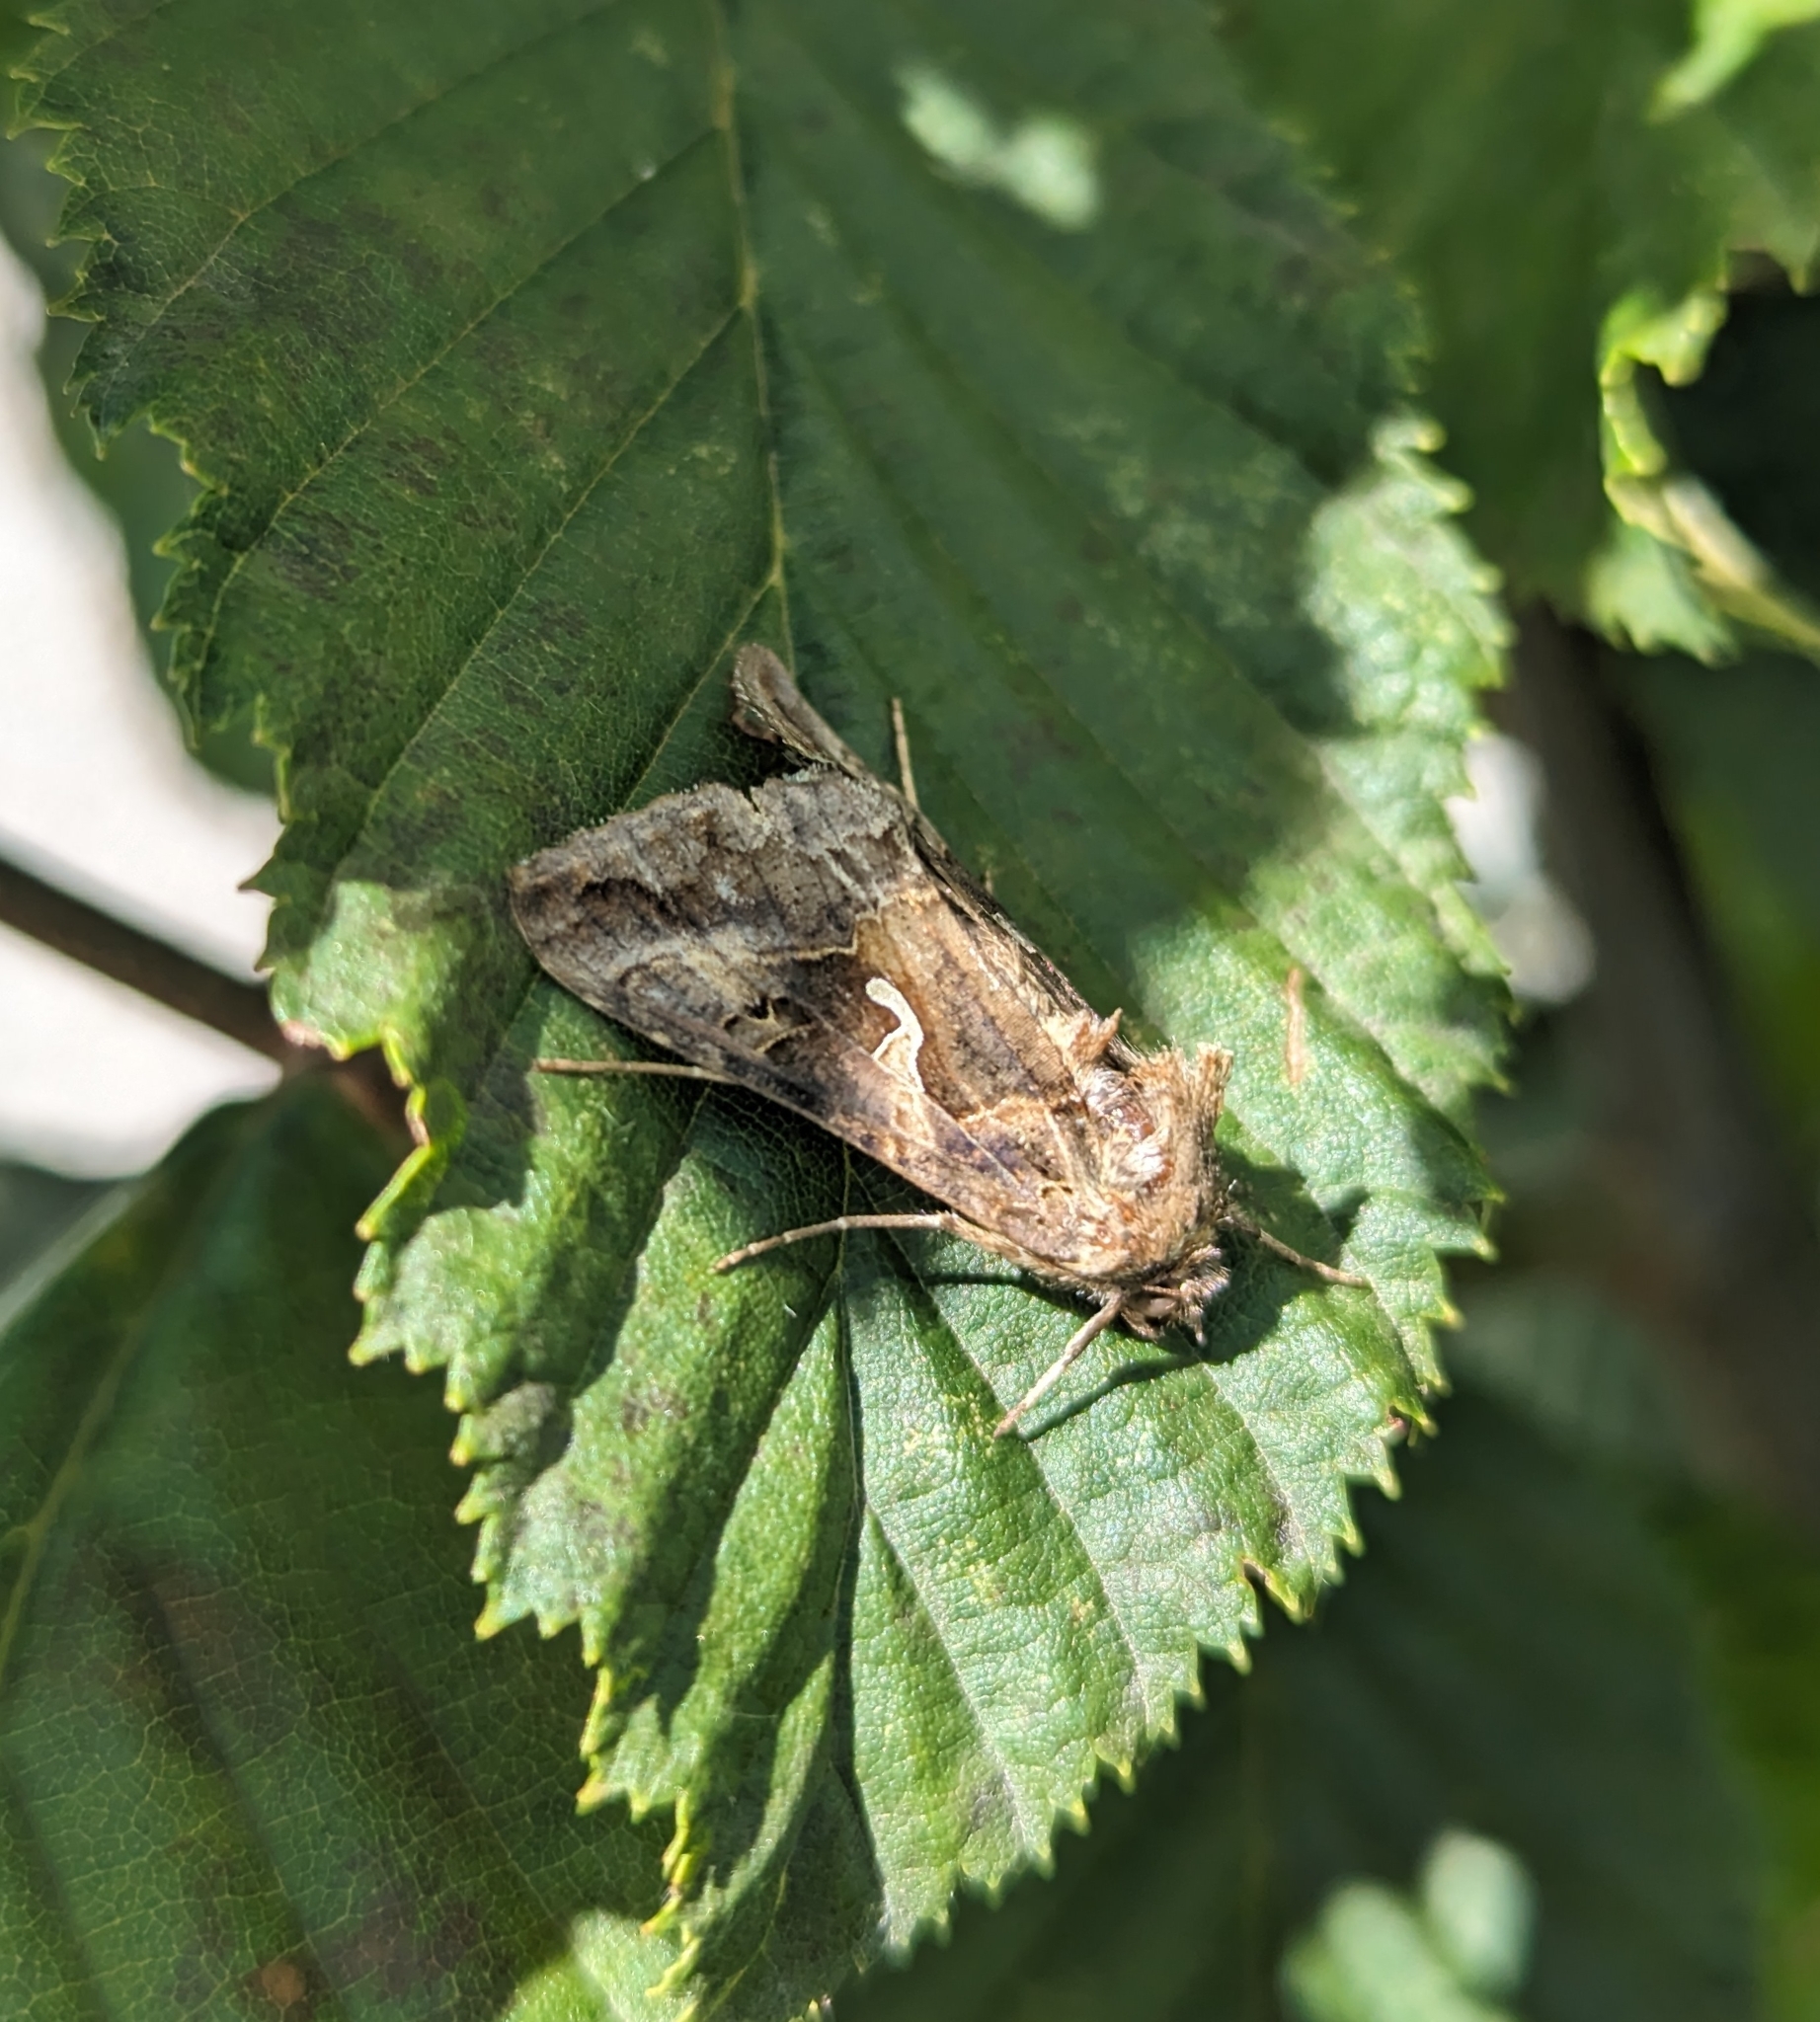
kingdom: Animalia
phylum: Arthropoda
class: Insecta
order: Lepidoptera
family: Noctuidae
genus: Autographa
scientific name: Autographa gamma
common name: Silver y
